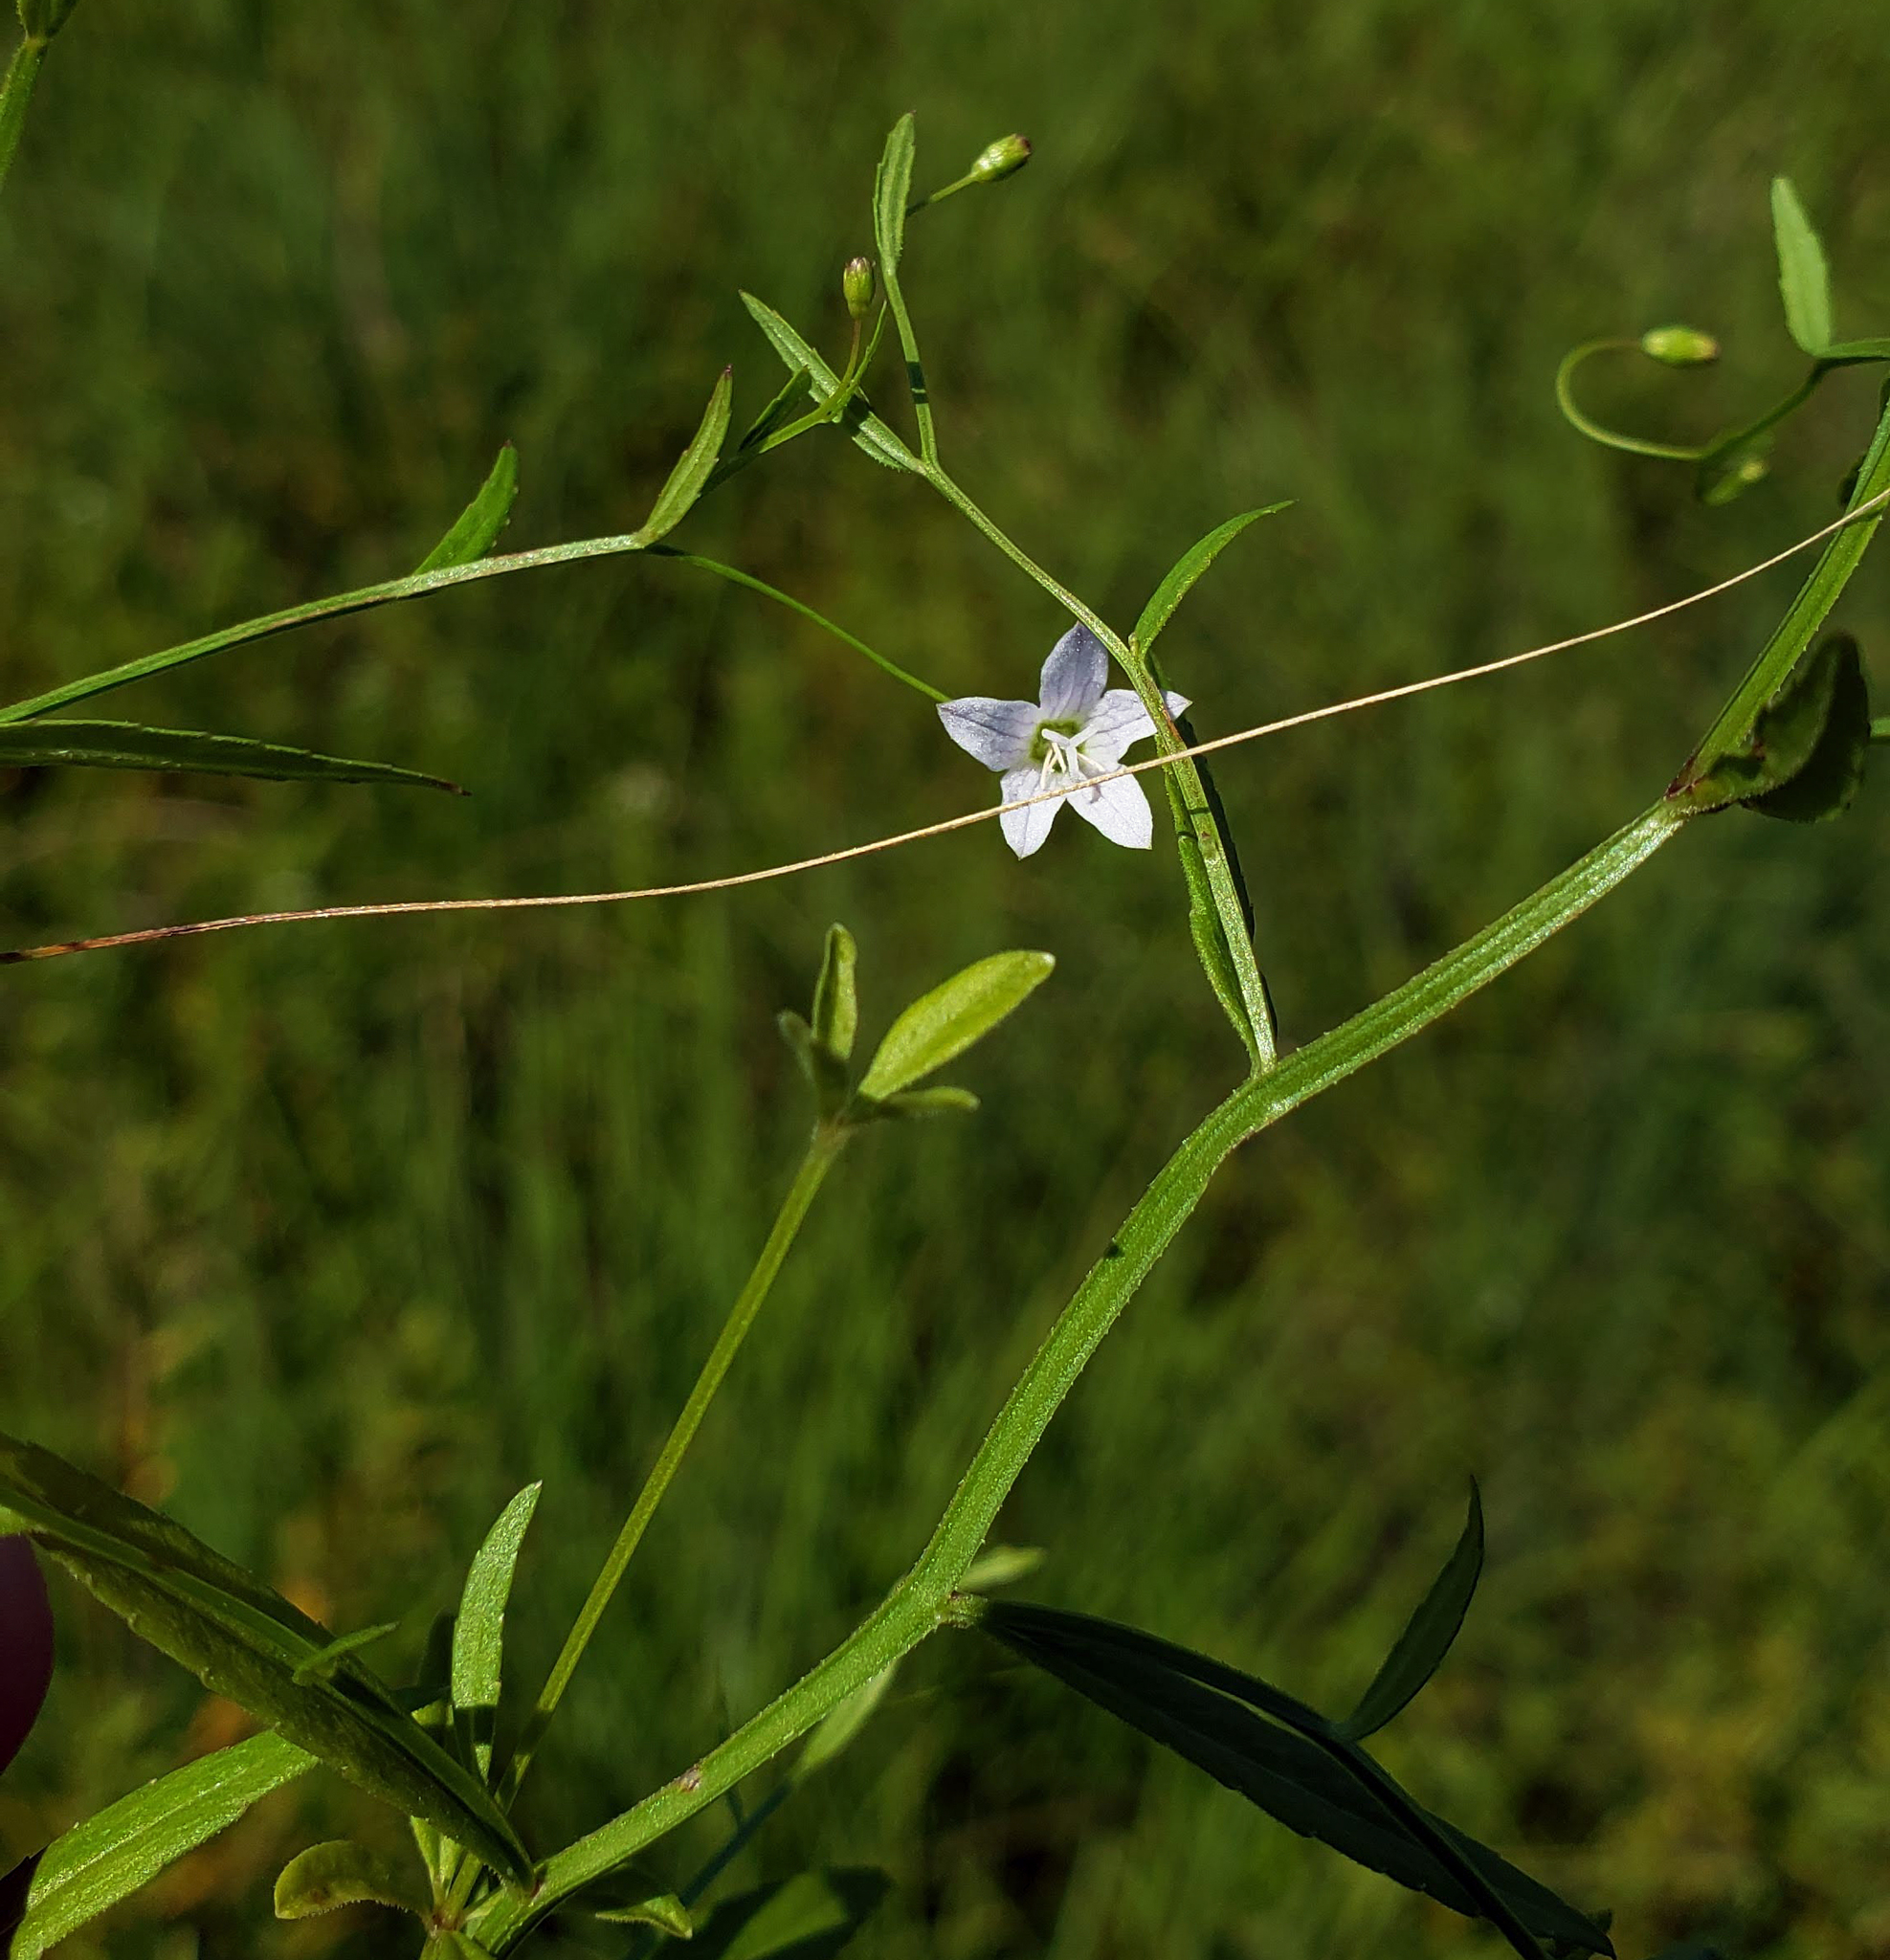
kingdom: Plantae
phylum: Tracheophyta
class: Magnoliopsida
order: Asterales
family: Campanulaceae
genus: Palustricodon
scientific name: Palustricodon aparinoides
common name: Bedstraw bellflower
